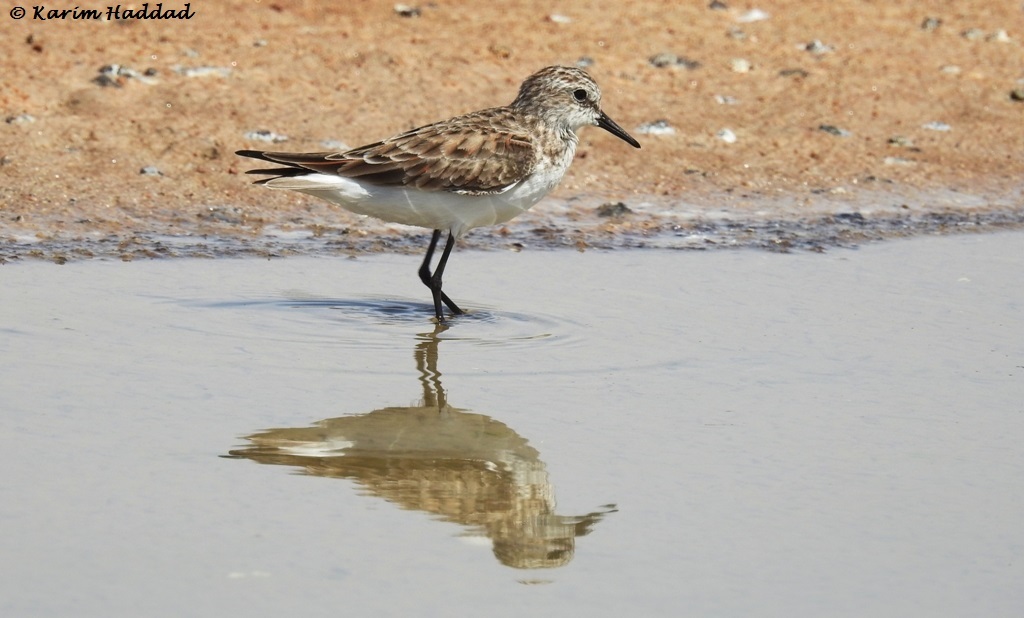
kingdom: Animalia
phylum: Chordata
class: Aves
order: Charadriiformes
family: Scolopacidae
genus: Calidris
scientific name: Calidris minuta
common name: Little stint
